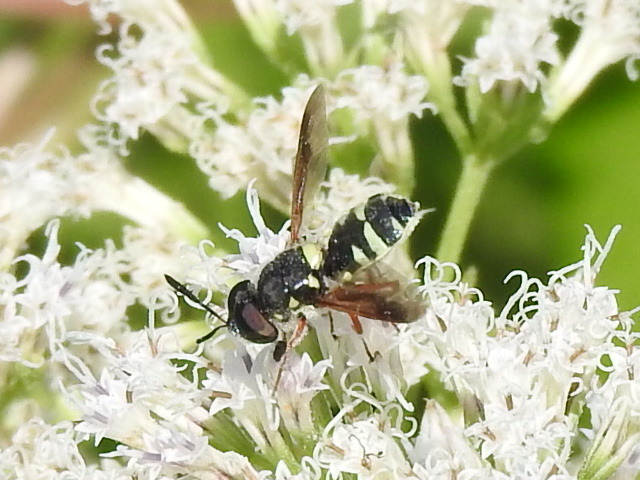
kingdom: Animalia
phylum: Arthropoda
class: Insecta
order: Diptera
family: Stratiomyidae
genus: Hoplitimyia
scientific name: Hoplitimyia constans
